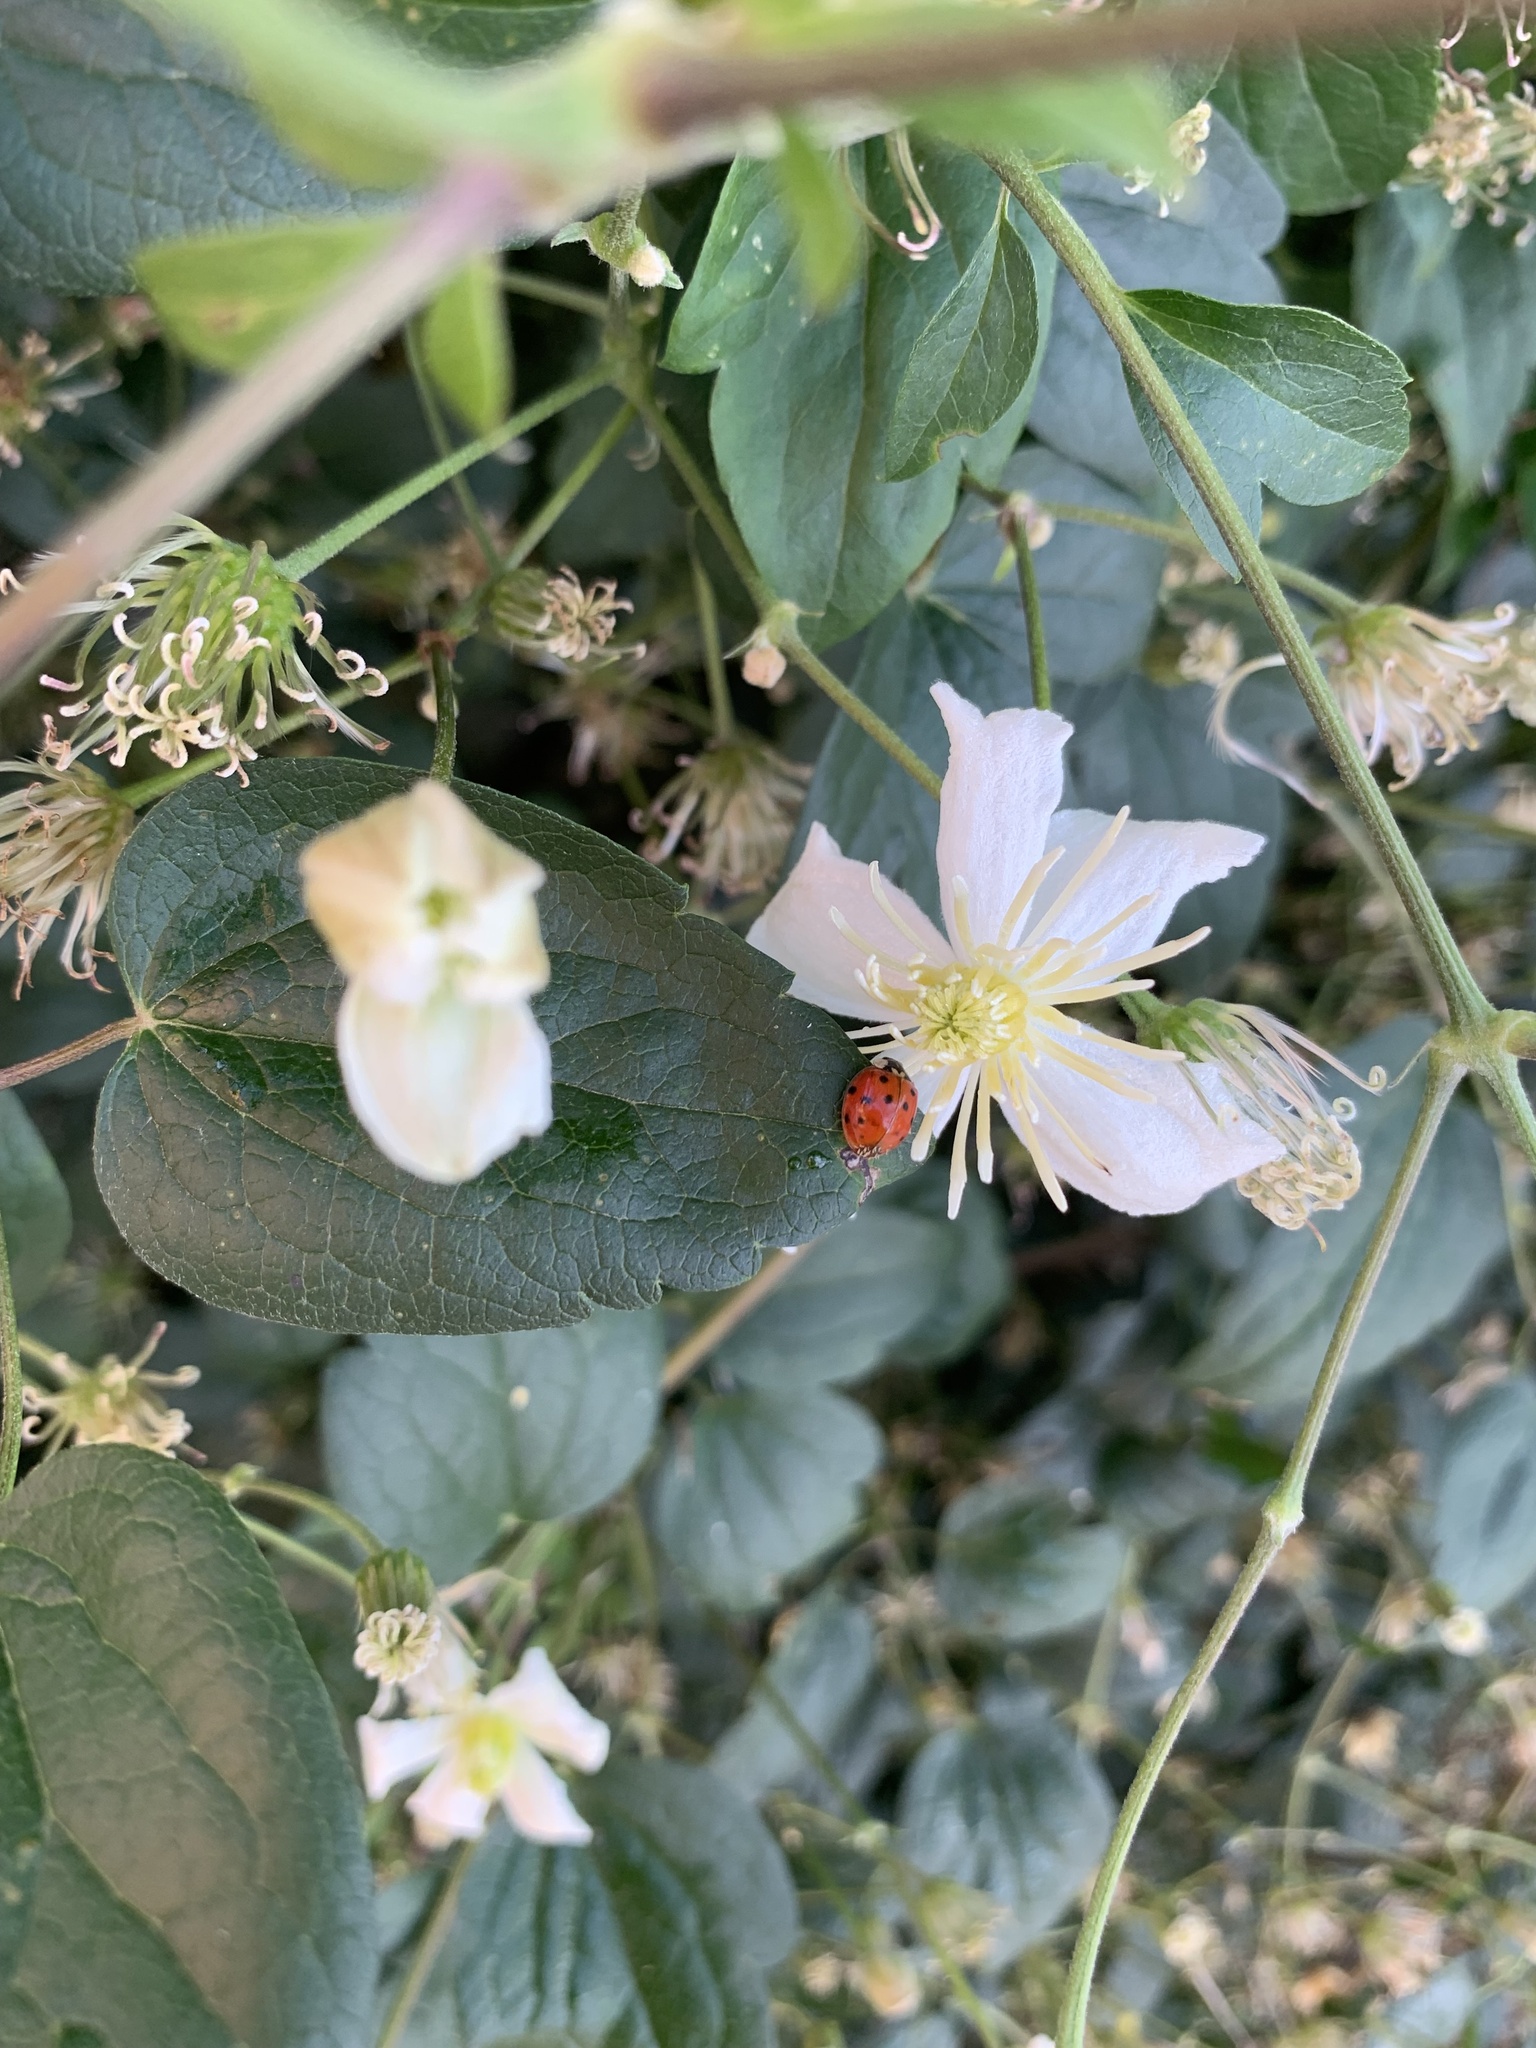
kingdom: Animalia
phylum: Arthropoda
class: Insecta
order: Coleoptera
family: Coccinellidae
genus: Harmonia
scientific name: Harmonia axyridis
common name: Harlequin ladybird
